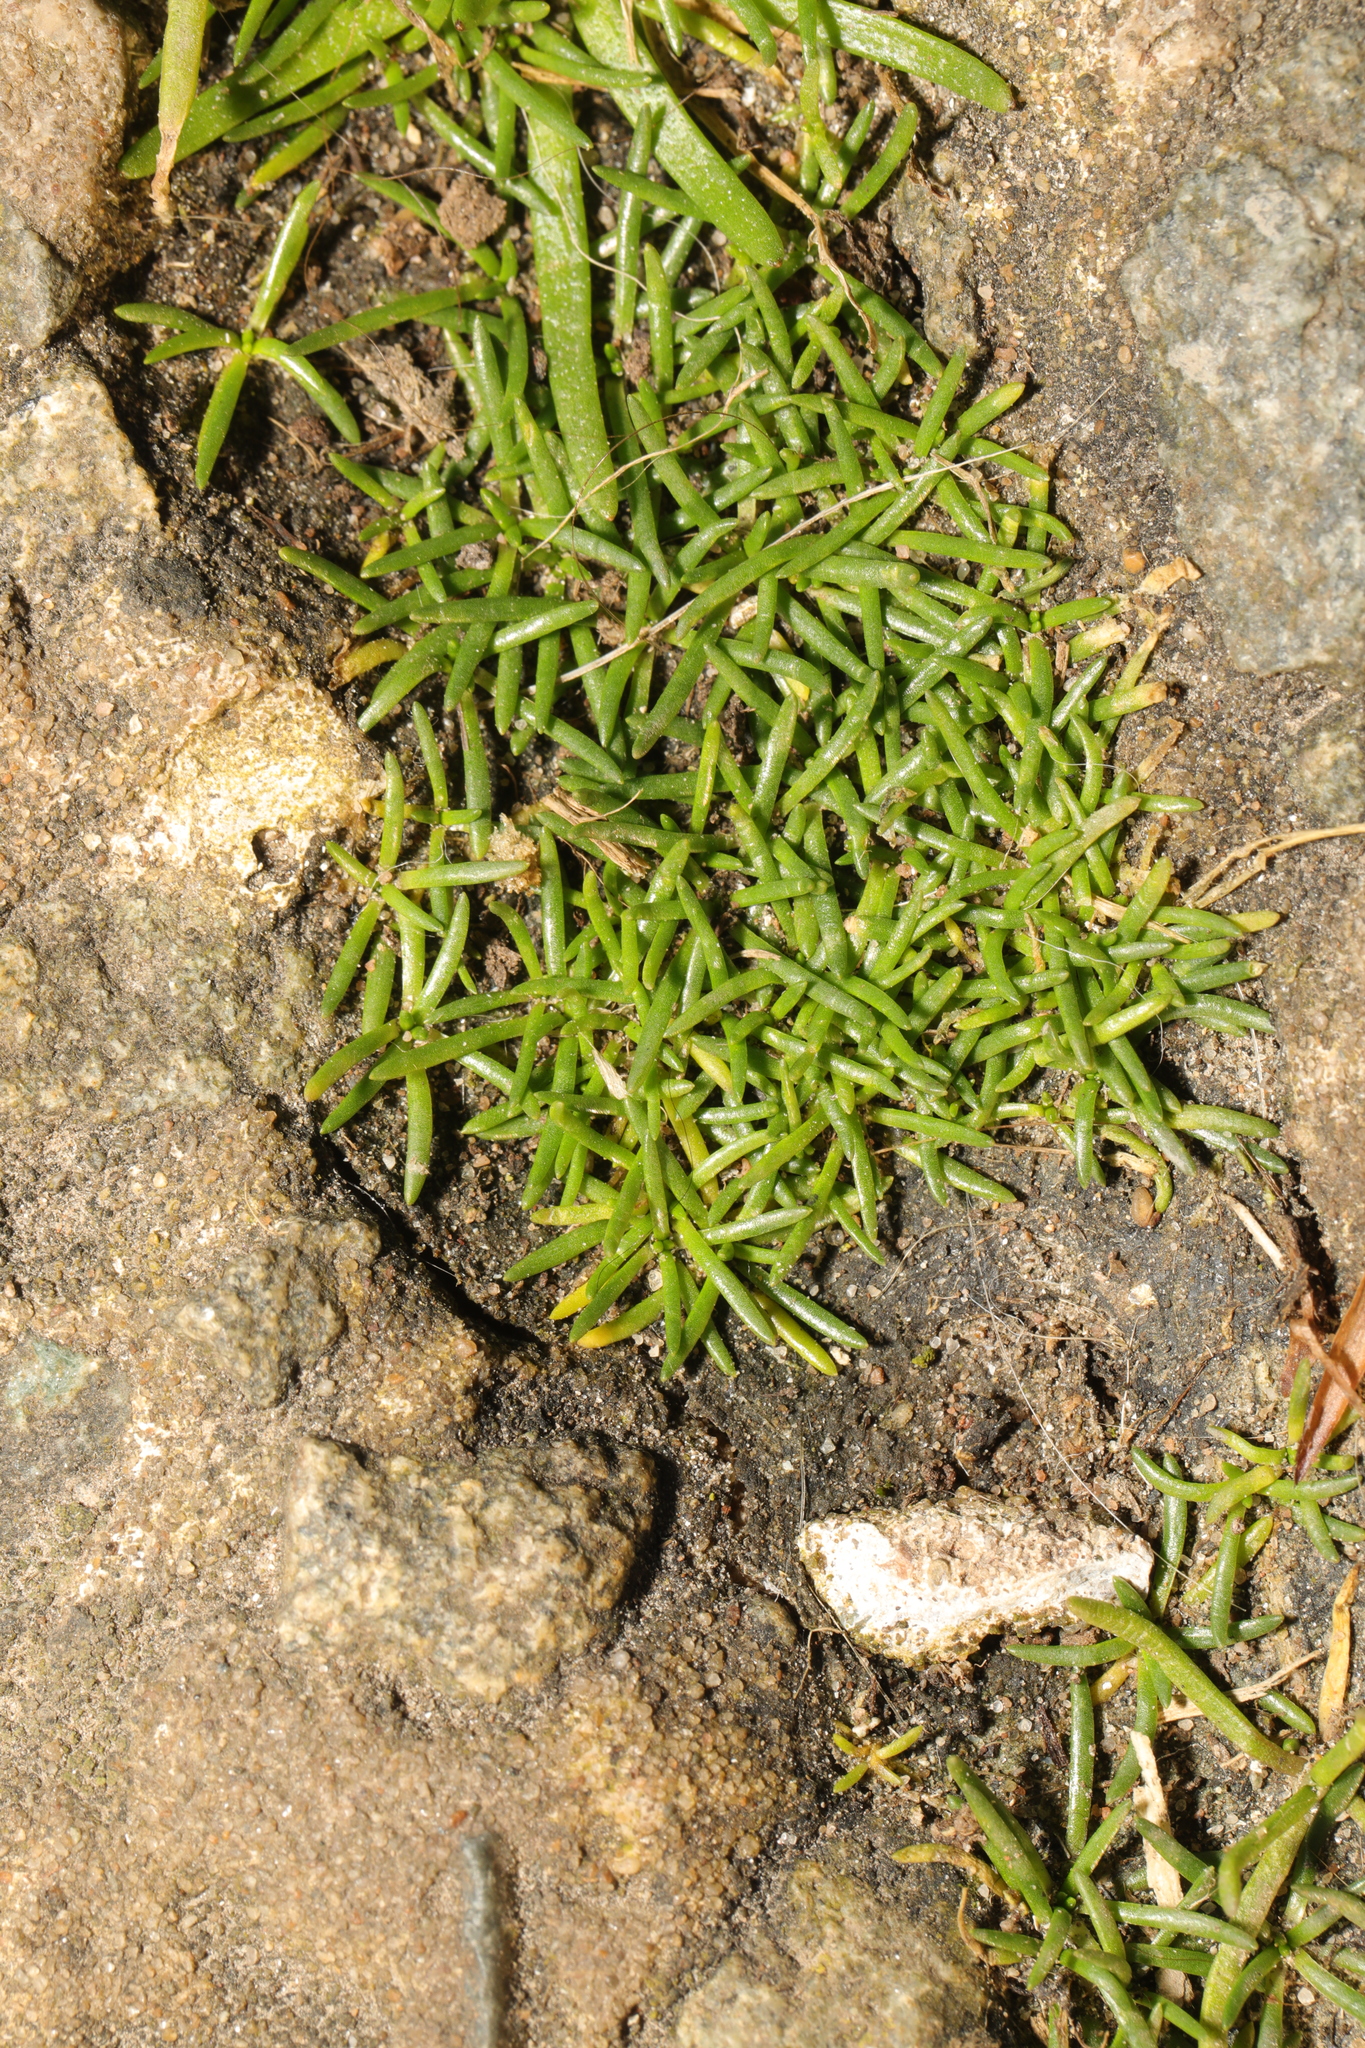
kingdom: Plantae
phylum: Tracheophyta
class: Magnoliopsida
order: Caryophyllales
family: Caryophyllaceae
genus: Sagina
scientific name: Sagina procumbens
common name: Procumbent pearlwort
